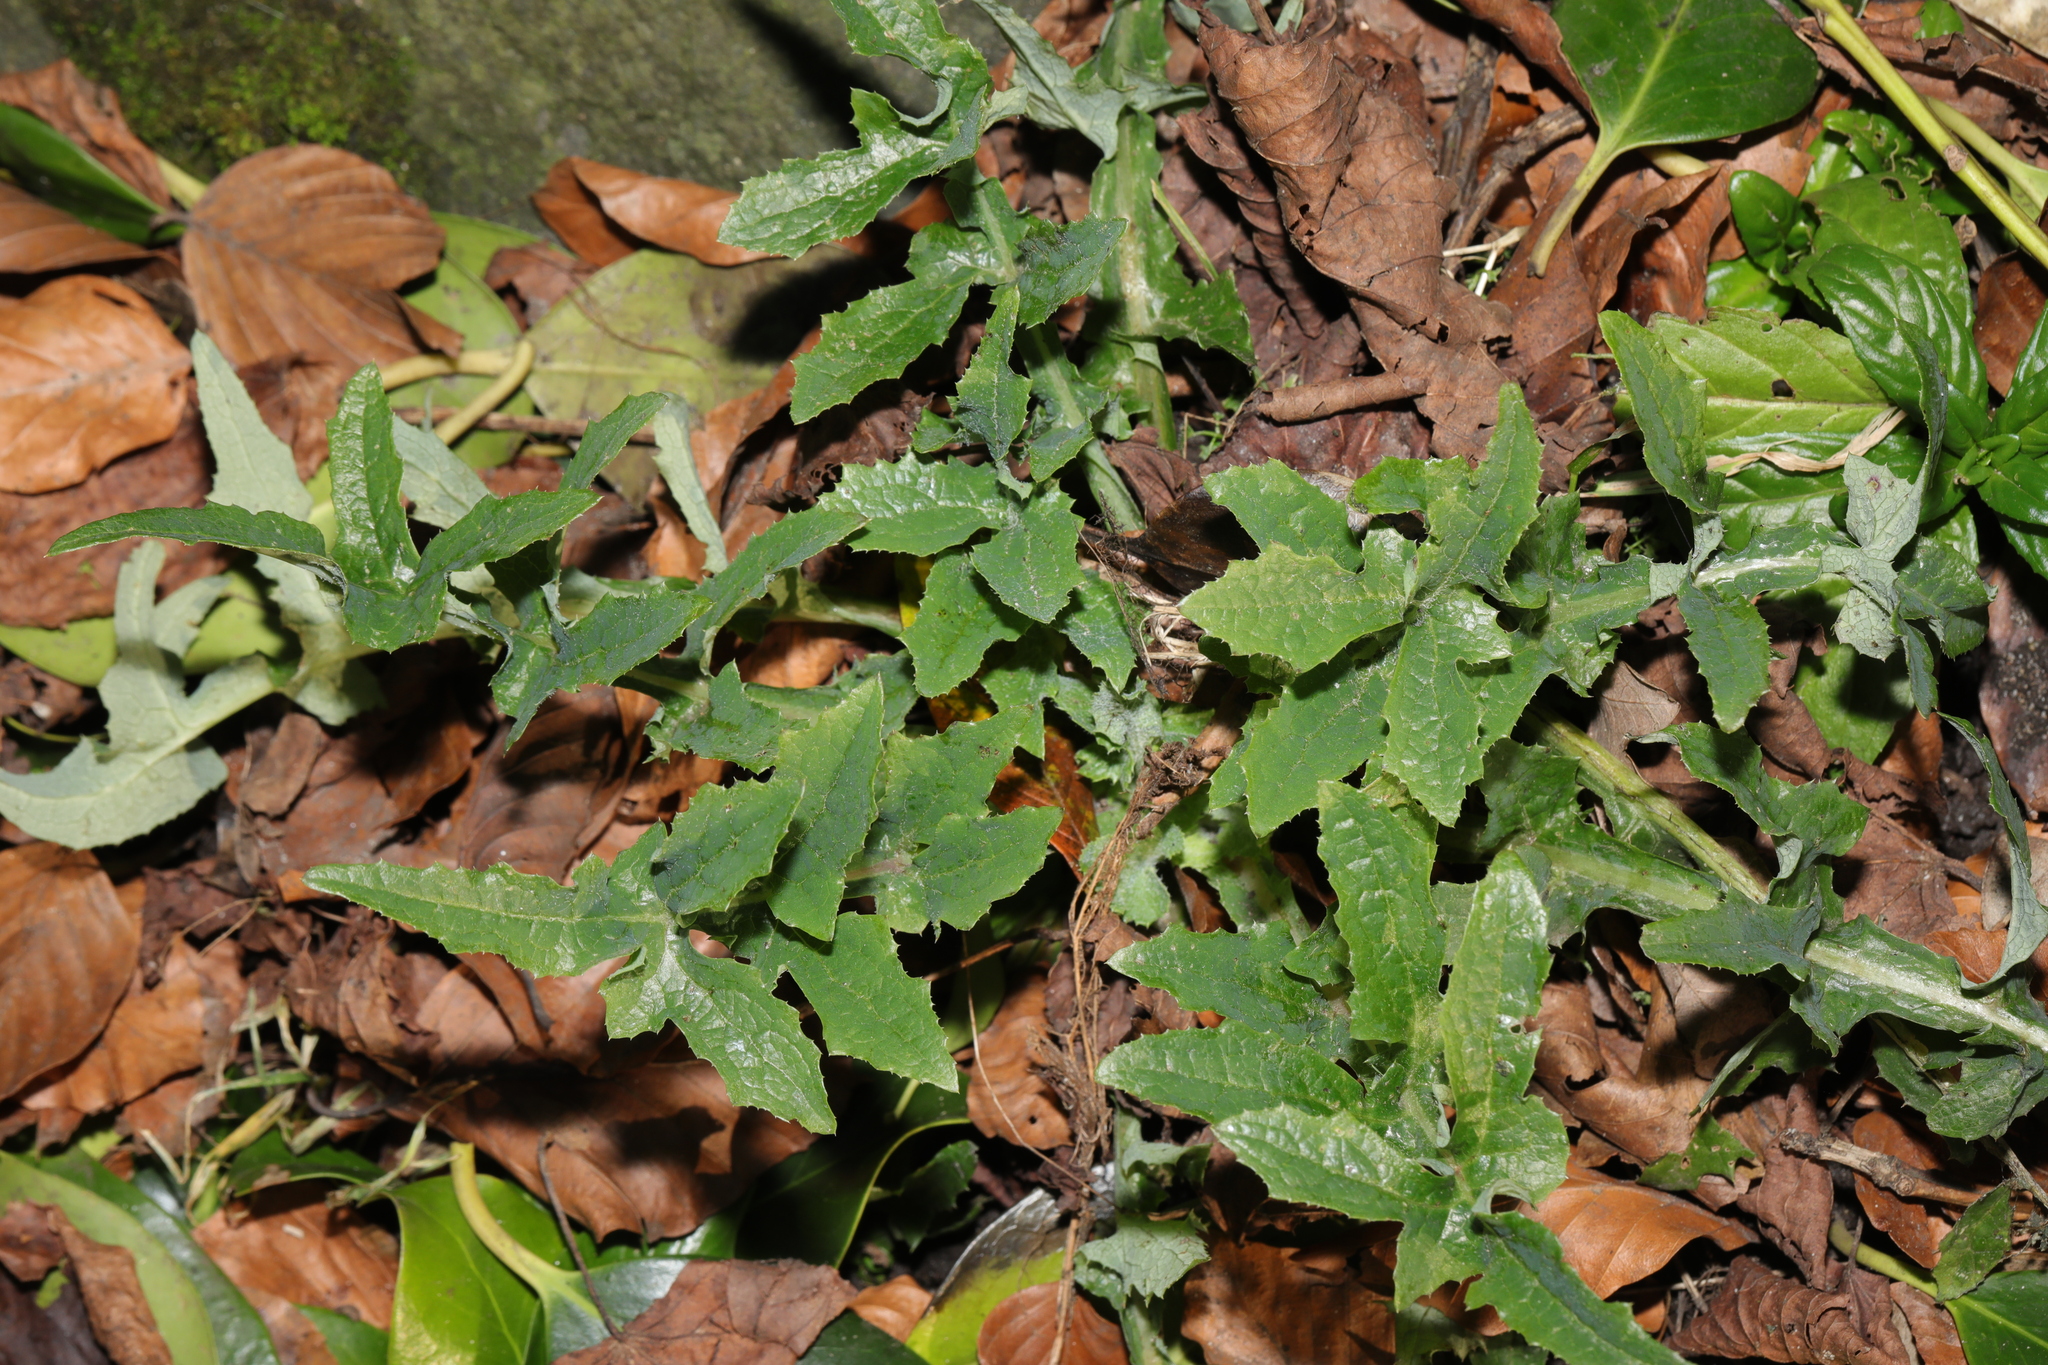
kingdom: Plantae
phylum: Tracheophyta
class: Magnoliopsida
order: Asterales
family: Asteraceae
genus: Sonchus
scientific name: Sonchus oleraceus
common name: Common sowthistle
